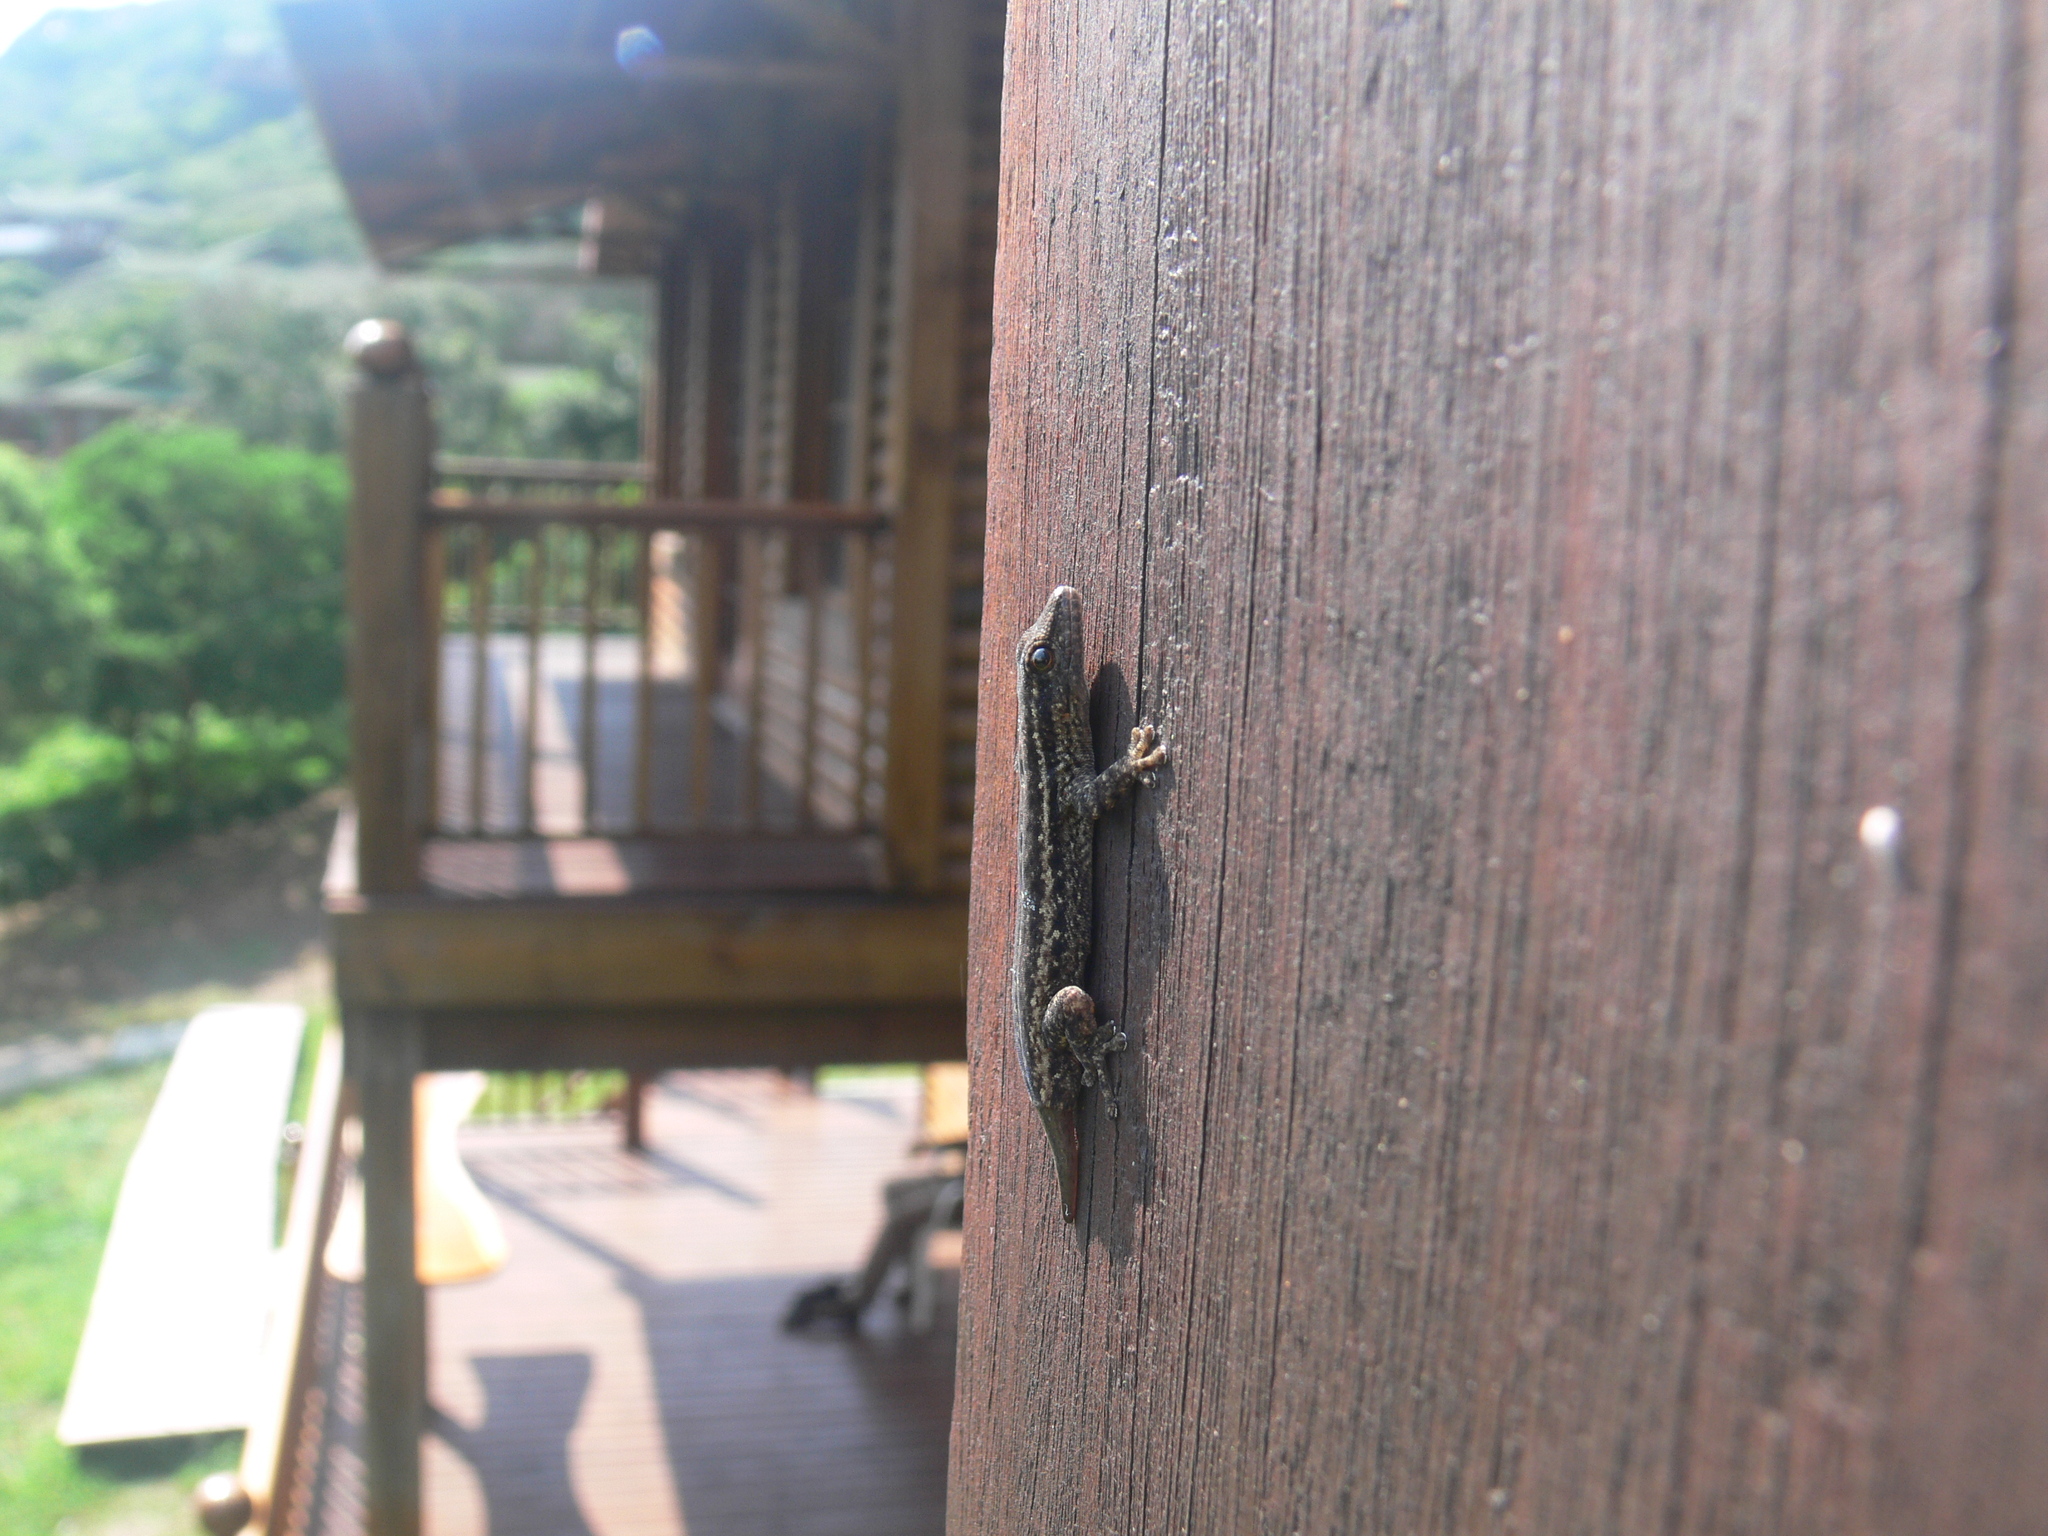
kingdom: Animalia
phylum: Chordata
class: Squamata
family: Gekkonidae
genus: Lygodactylus
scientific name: Lygodactylus capensis
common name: Cape dwarf gecko
